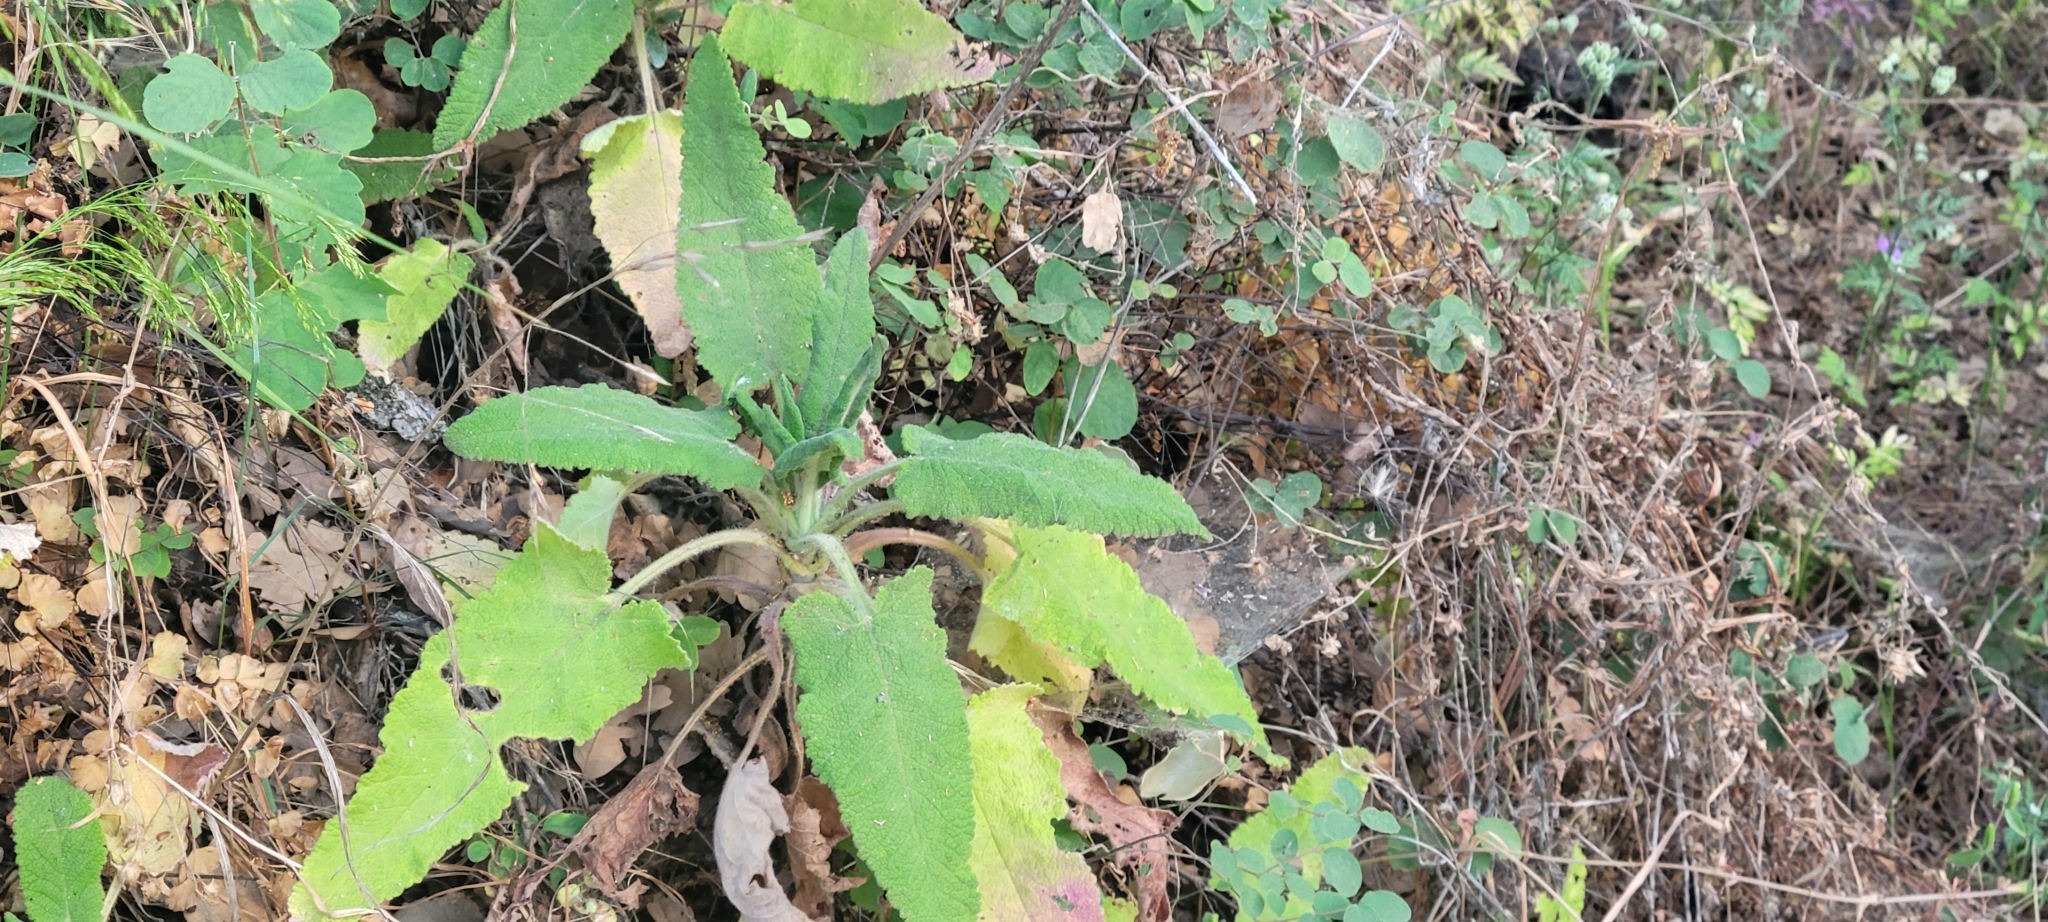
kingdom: Plantae
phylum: Tracheophyta
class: Magnoliopsida
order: Lamiales
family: Lamiaceae
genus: Salvia
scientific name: Salvia spathacea
